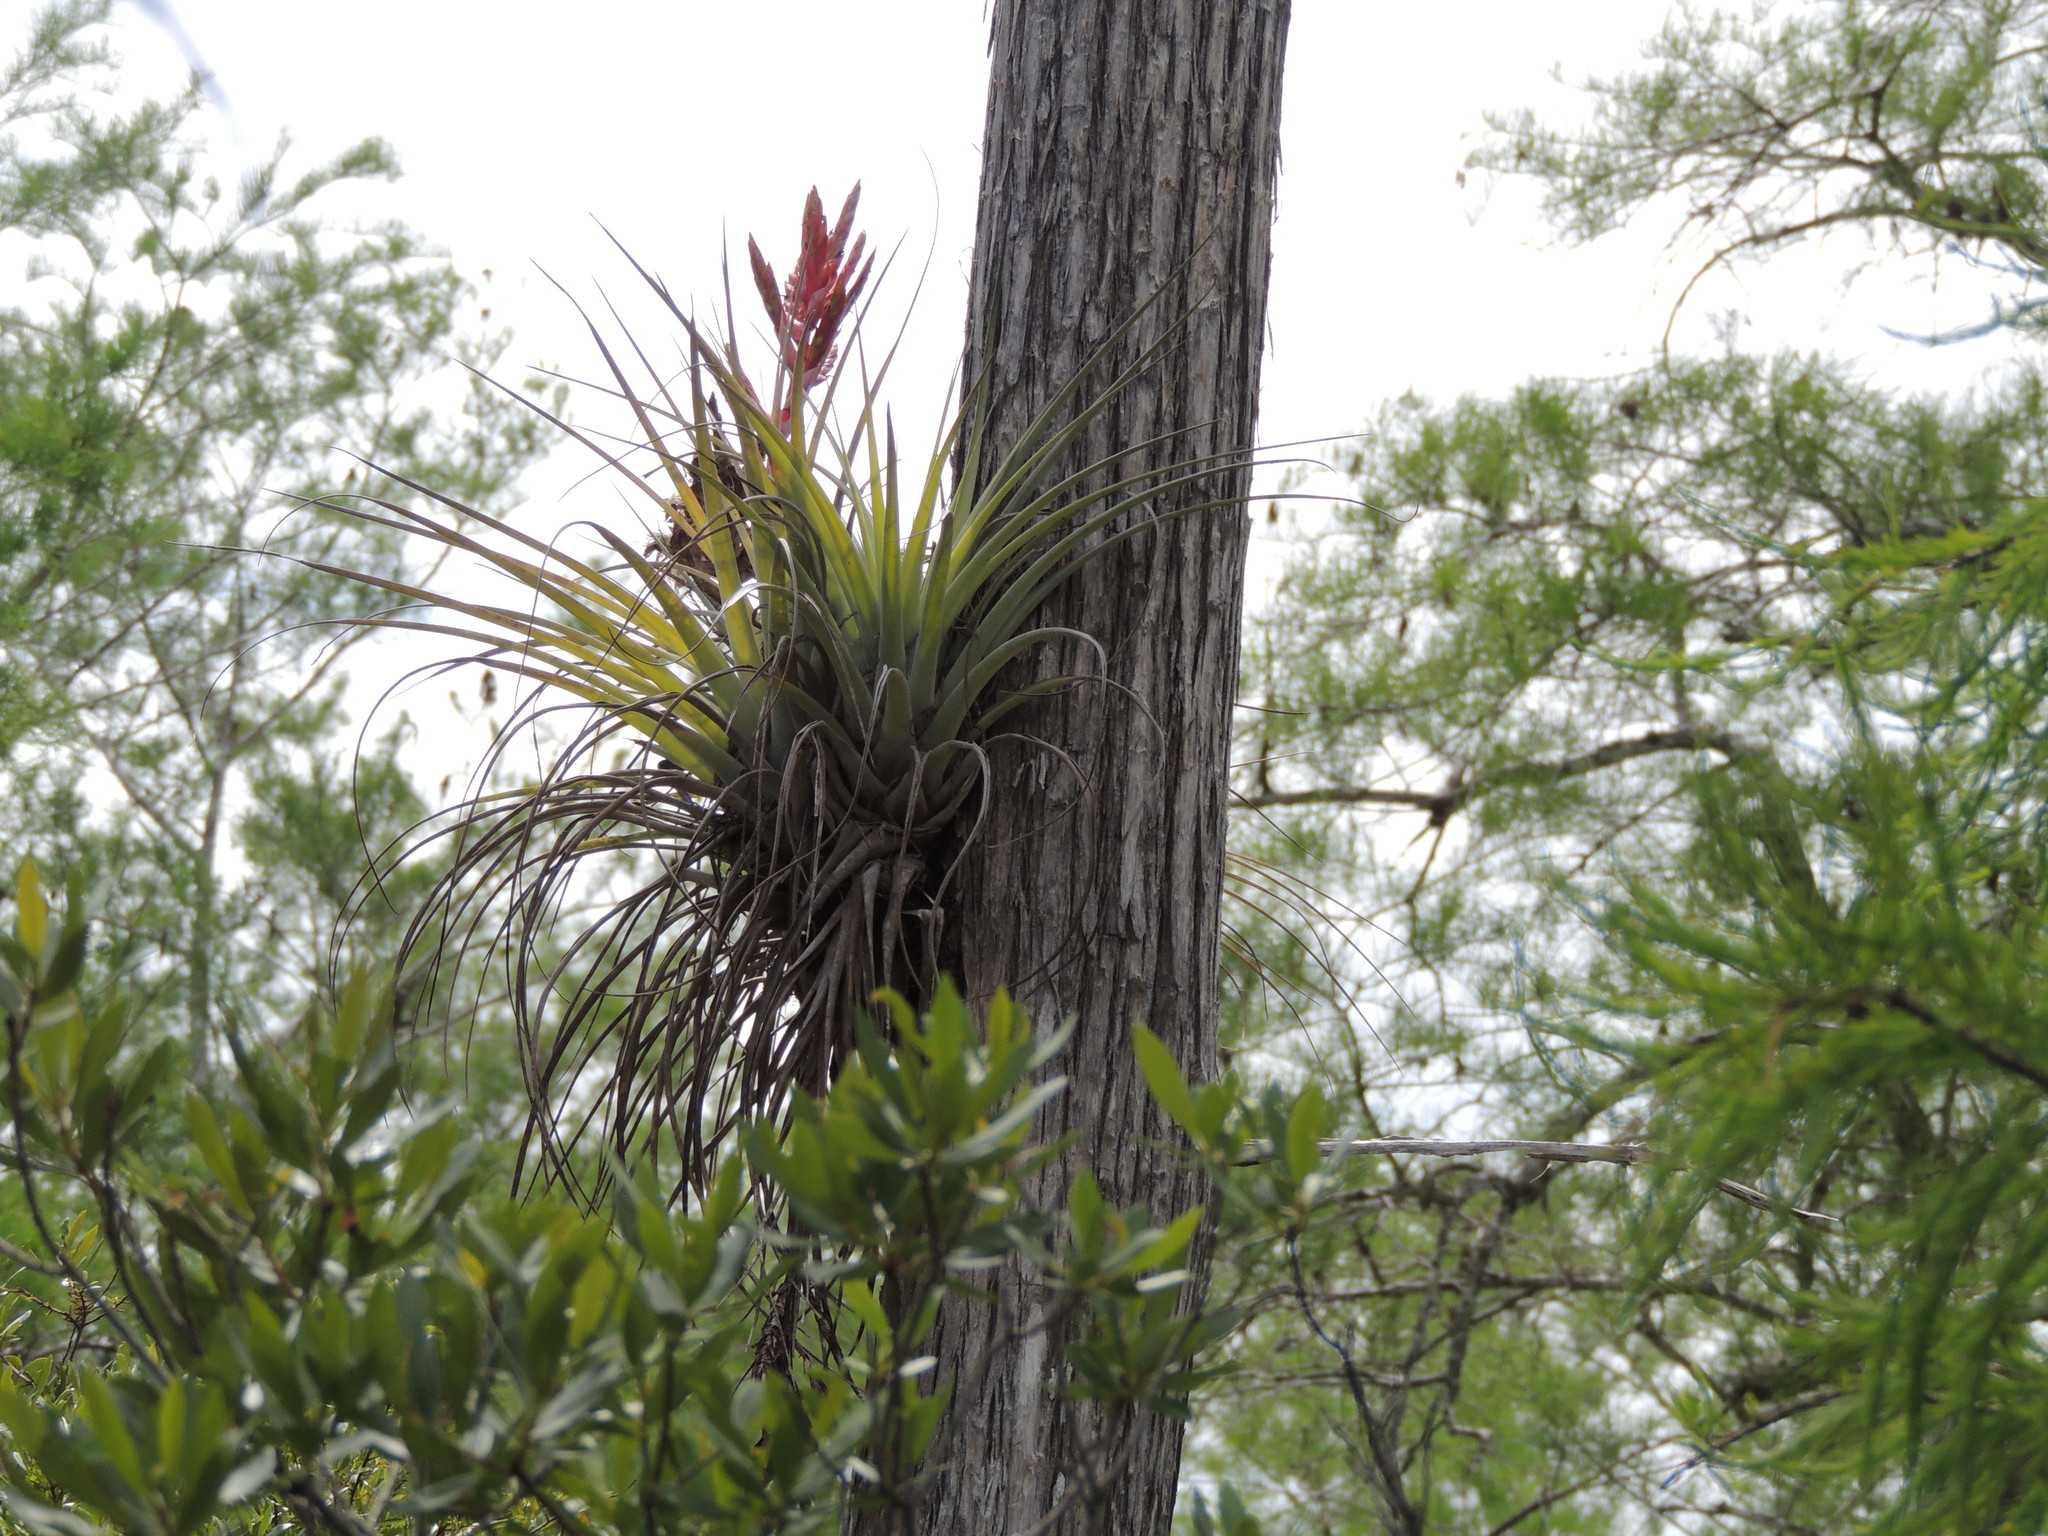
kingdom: Plantae
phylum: Tracheophyta
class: Liliopsida
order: Poales
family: Bromeliaceae
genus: Tillandsia
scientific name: Tillandsia fasciculata
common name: Giant airplant
